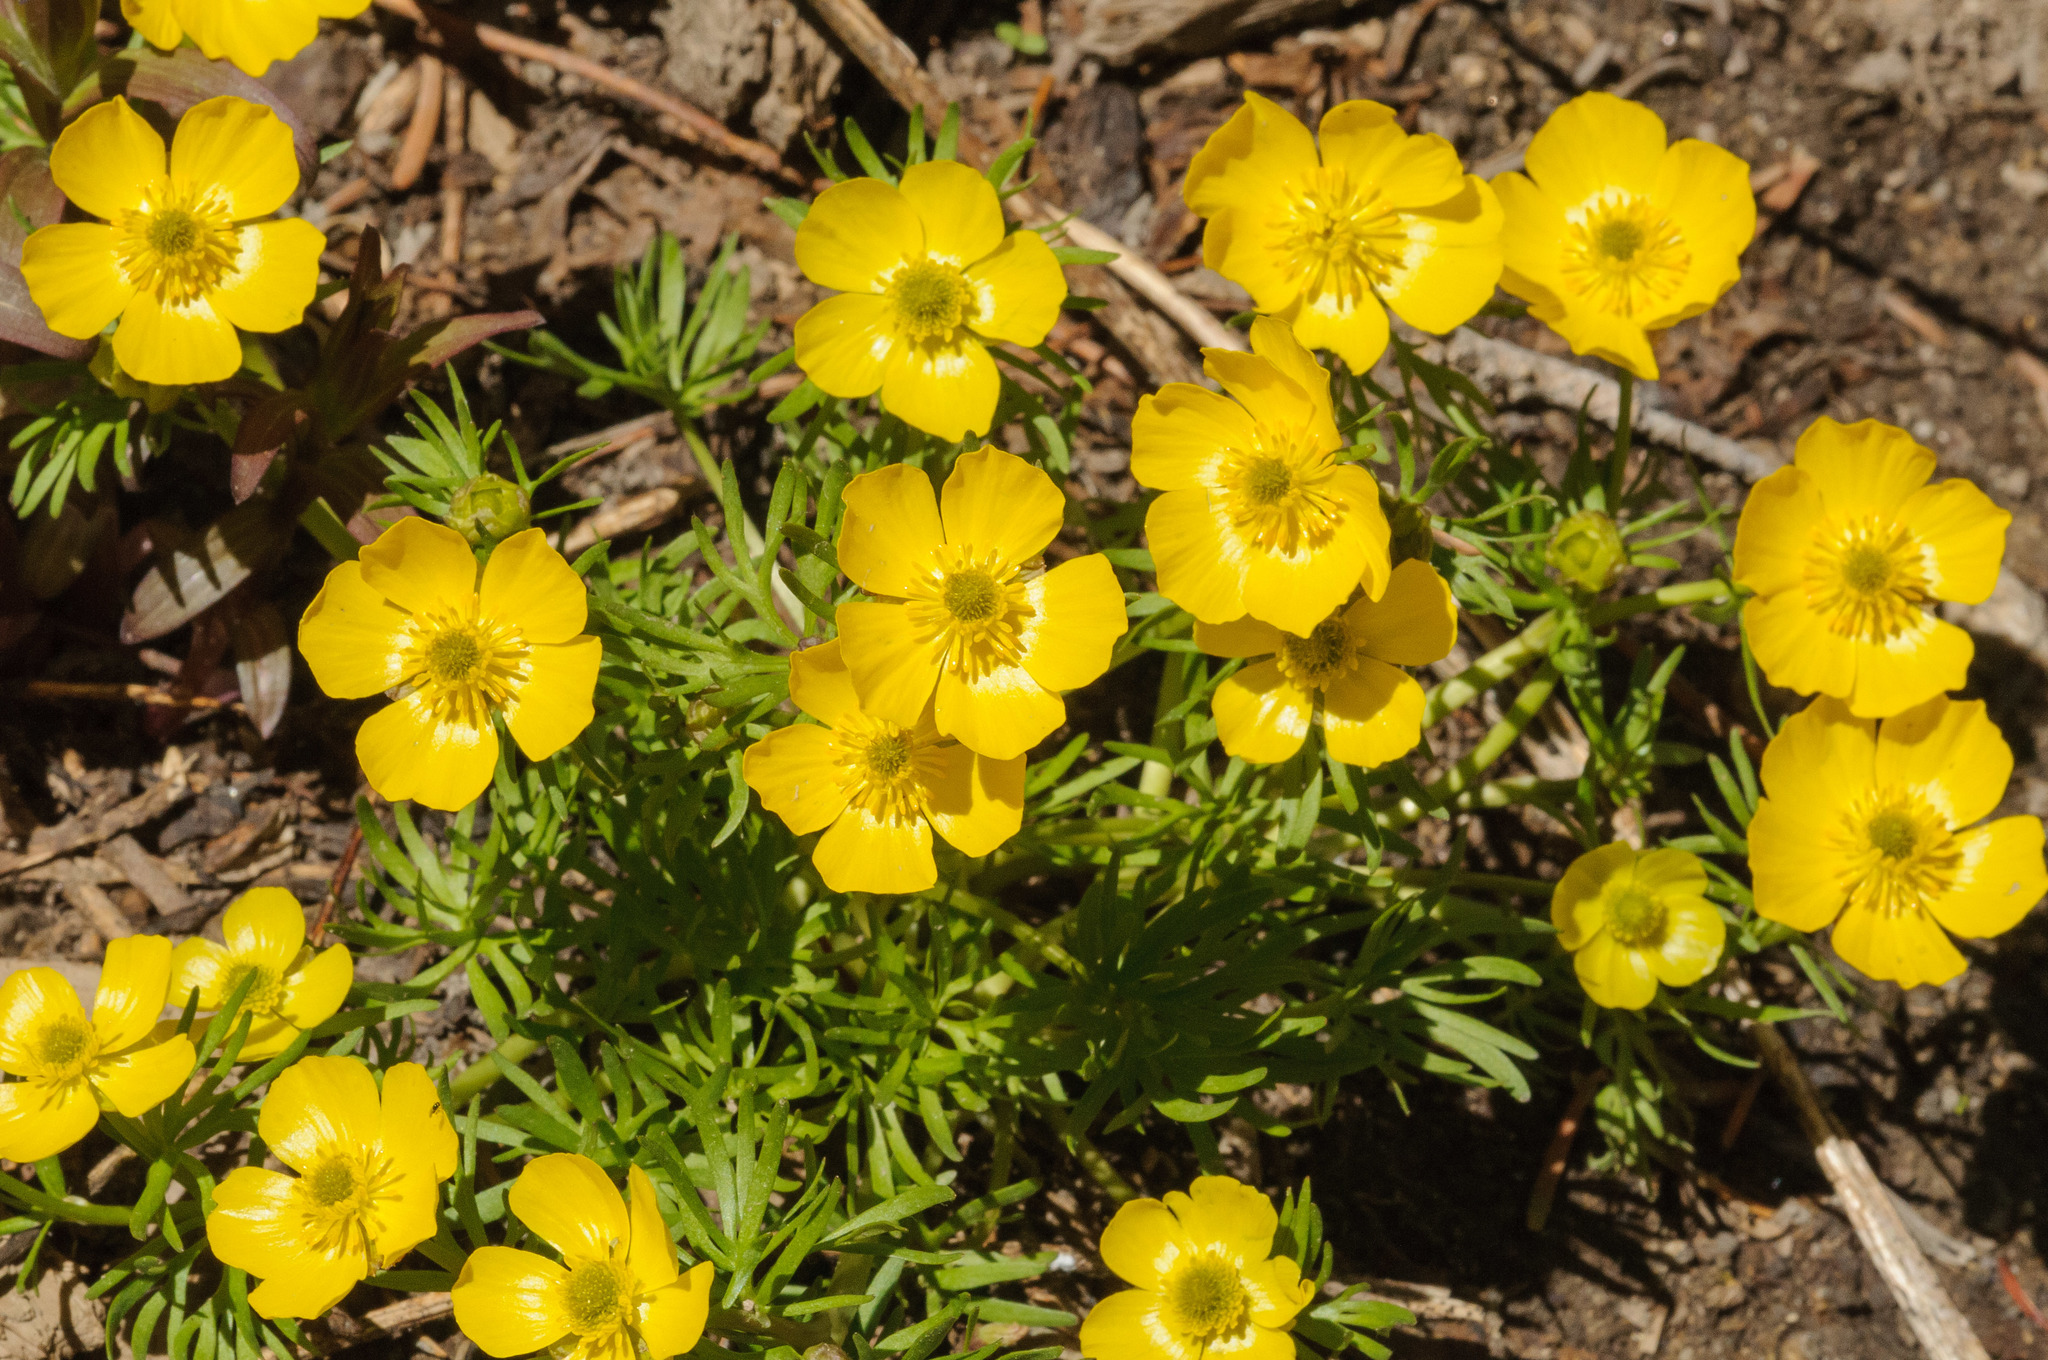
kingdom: Plantae
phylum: Tracheophyta
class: Magnoliopsida
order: Ranunculales
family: Ranunculaceae
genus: Ranunculus
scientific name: Ranunculus adoneus
